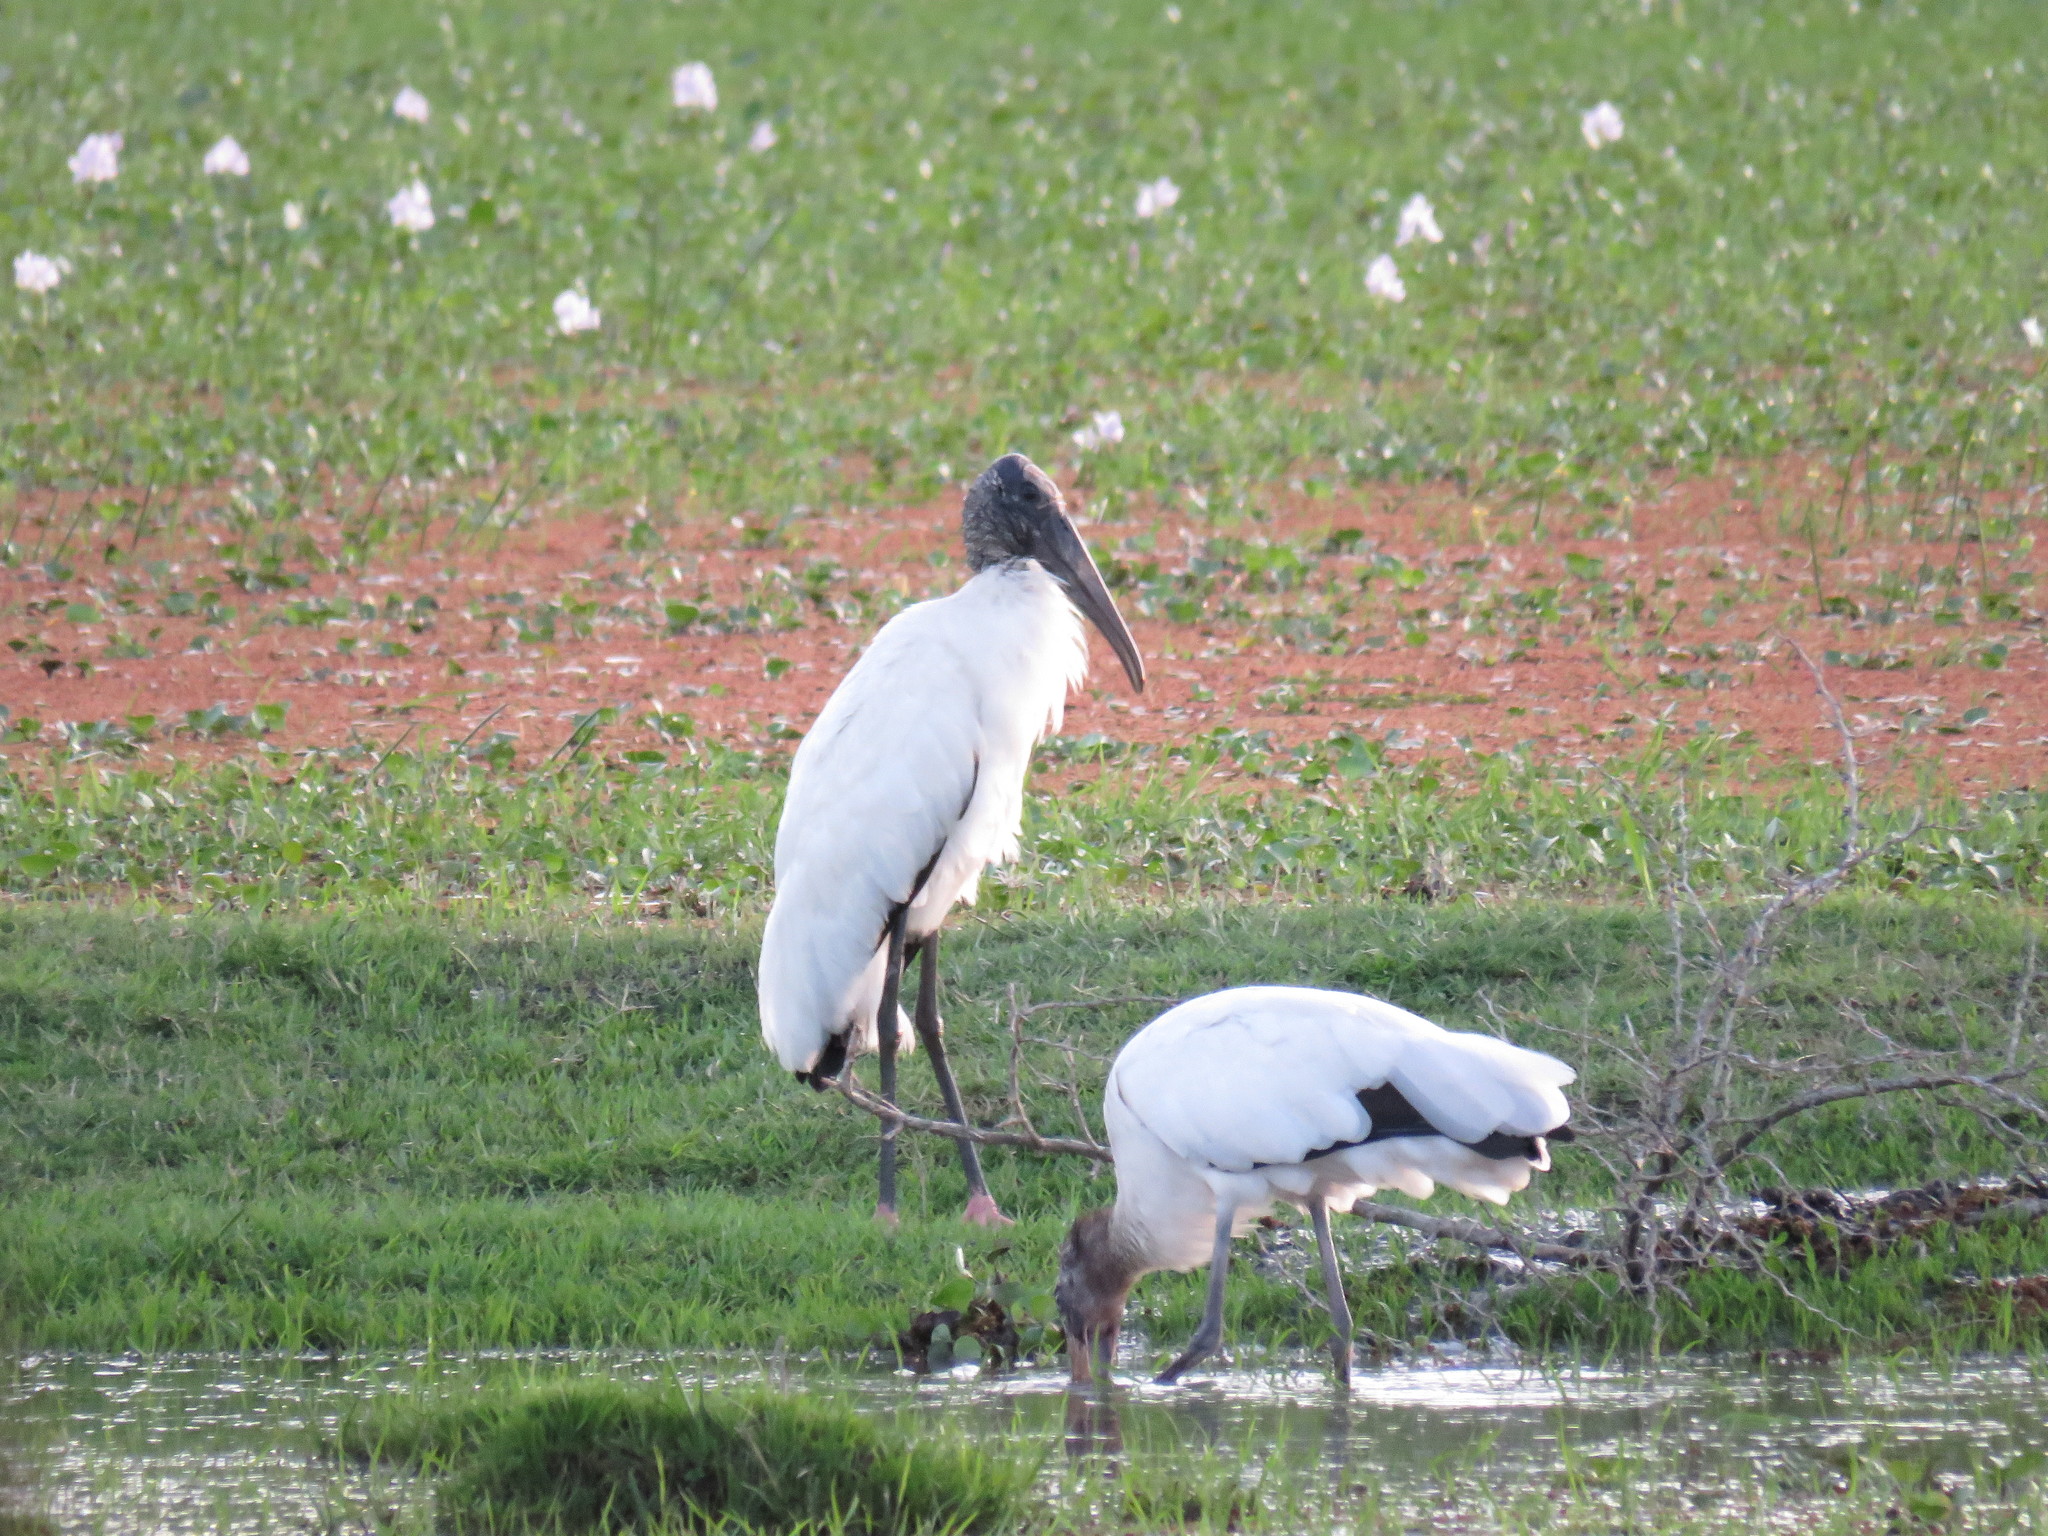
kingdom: Animalia
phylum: Chordata
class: Aves
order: Ciconiiformes
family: Ciconiidae
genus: Mycteria
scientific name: Mycteria americana
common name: Wood stork
